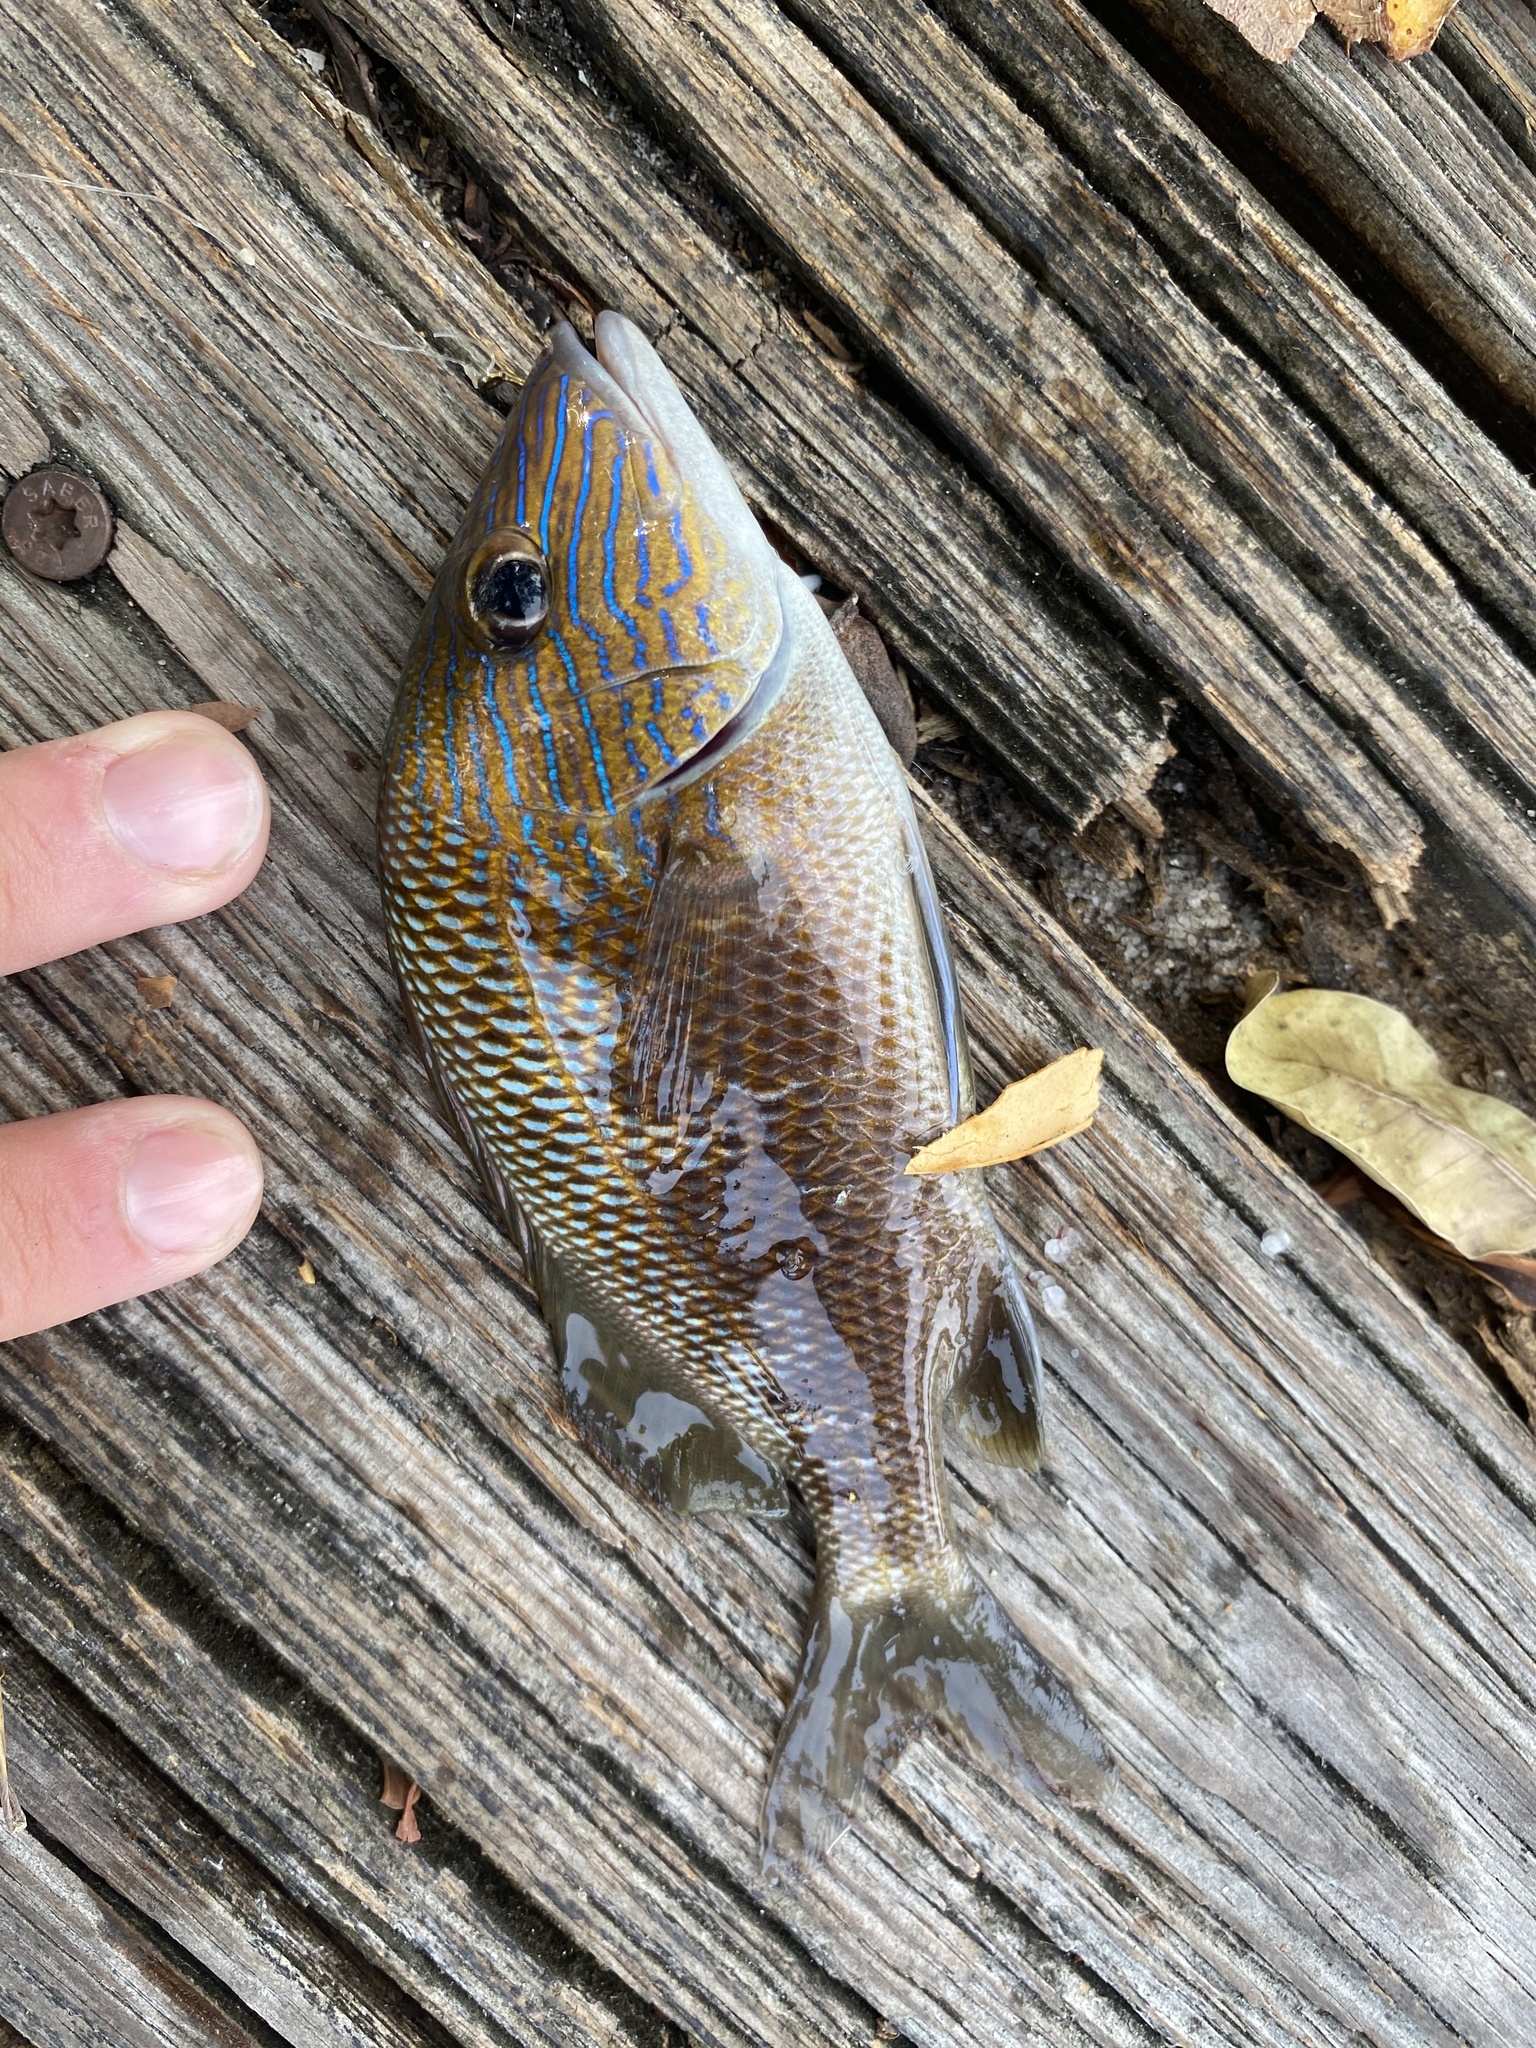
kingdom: Animalia
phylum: Chordata
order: Perciformes
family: Haemulidae
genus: Haemulon
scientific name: Haemulon plumierii
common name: White grunt
